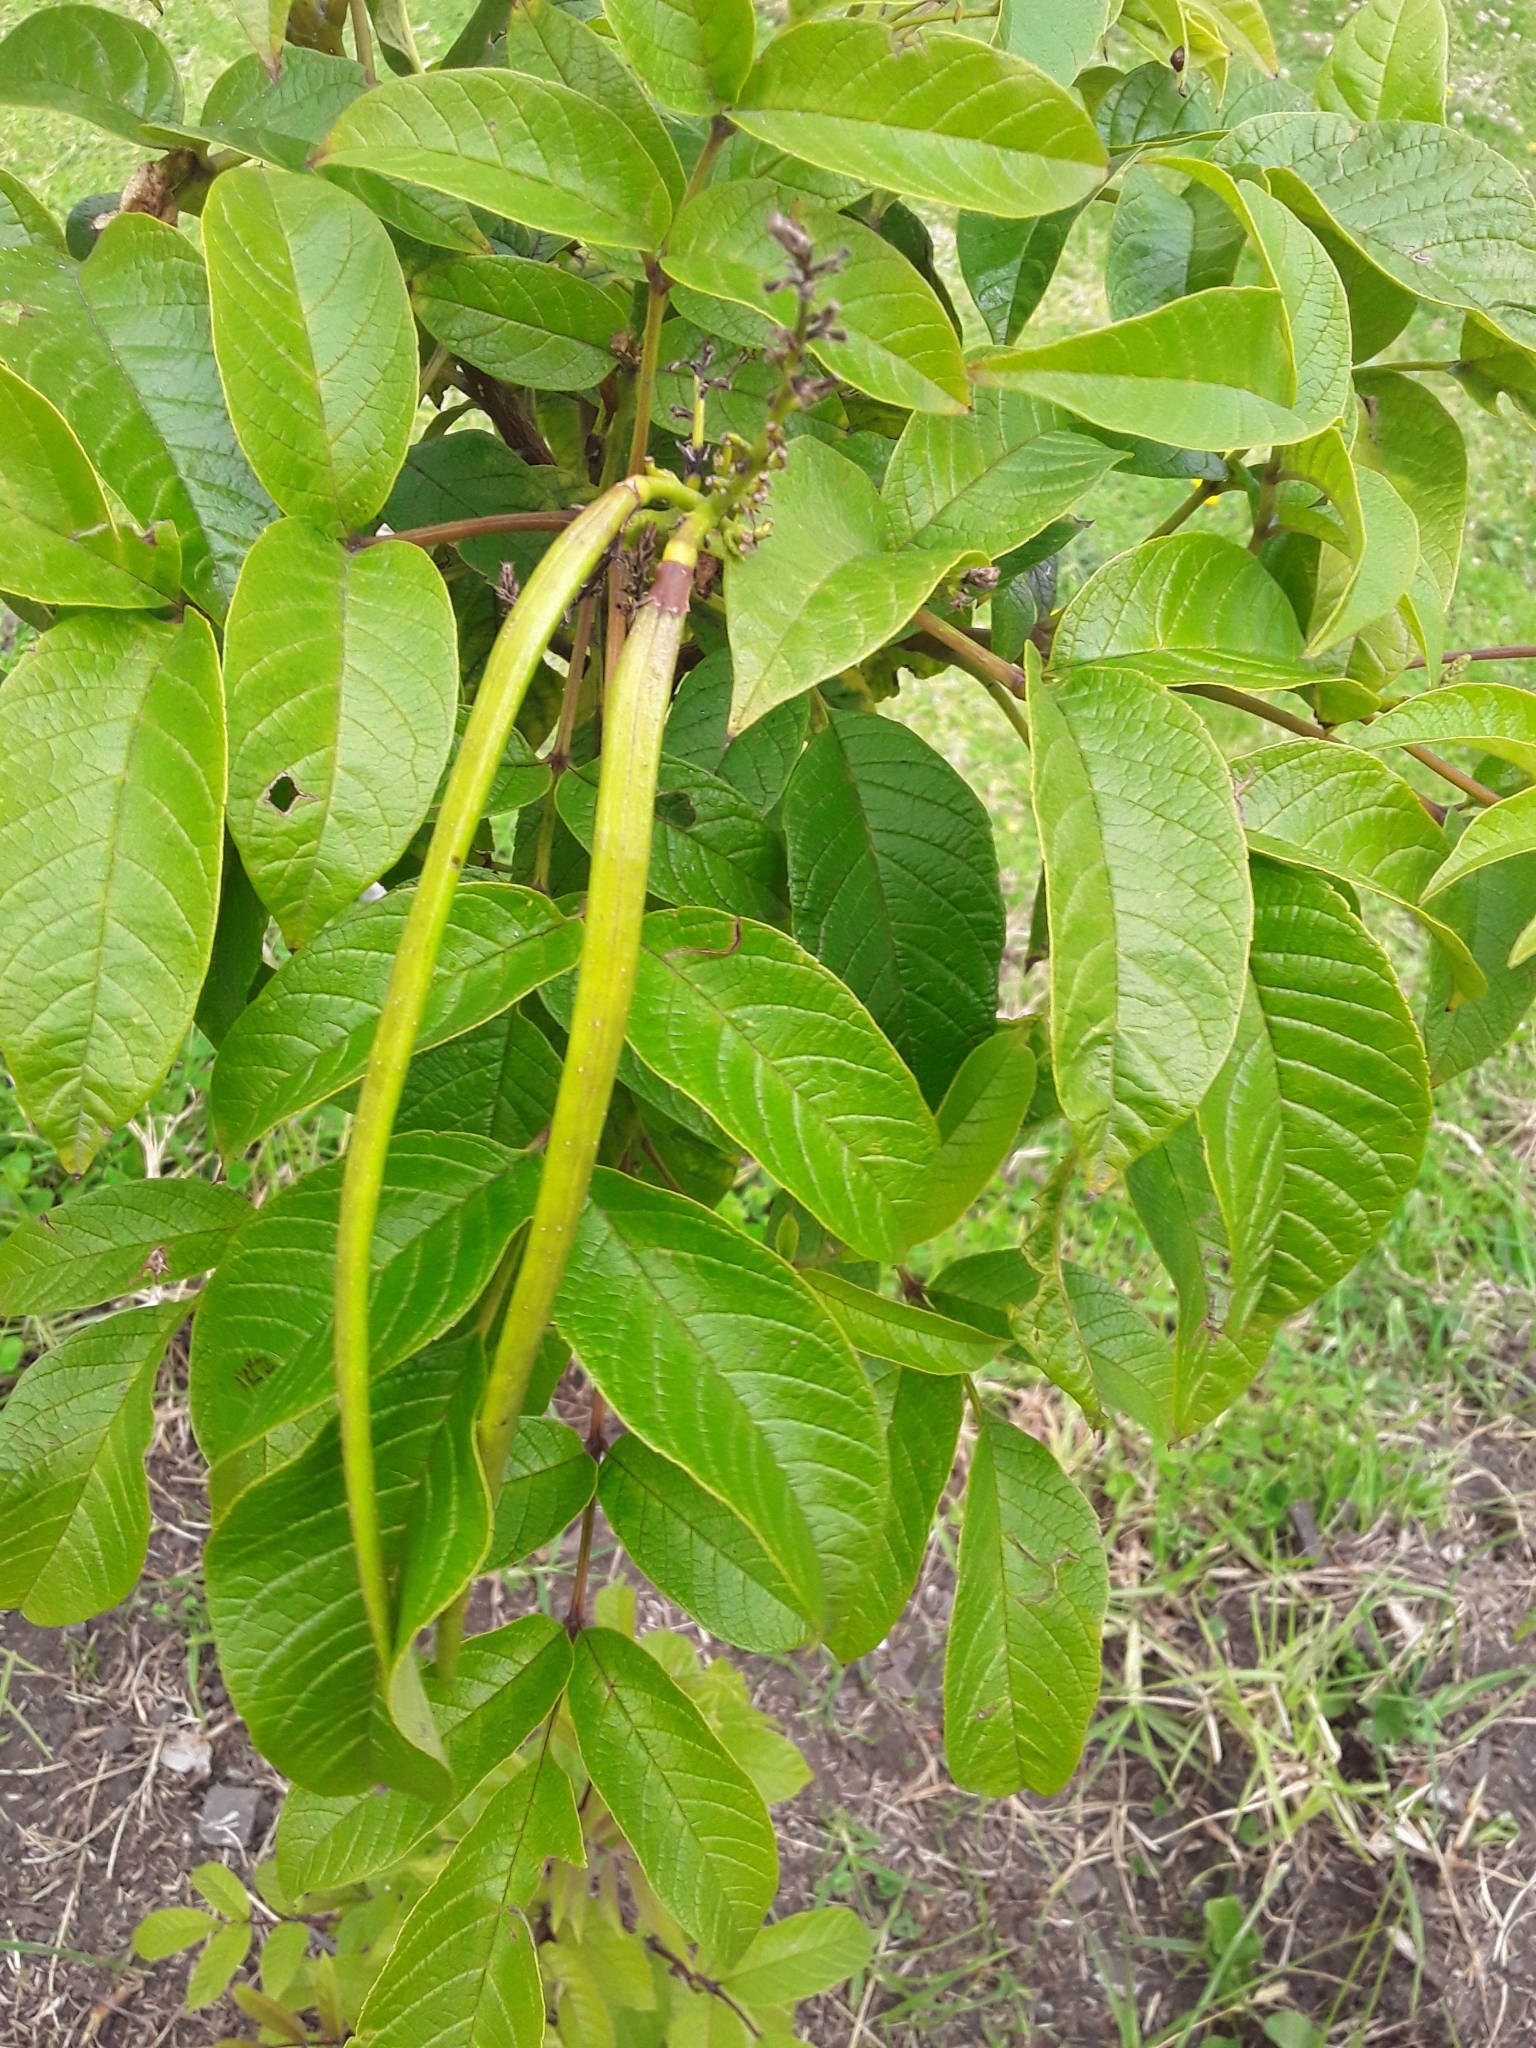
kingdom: Plantae
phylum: Tracheophyta
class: Magnoliopsida
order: Lamiales
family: Bignoniaceae
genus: Tecoma
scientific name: Tecoma stans
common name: Yellow trumpetbush
